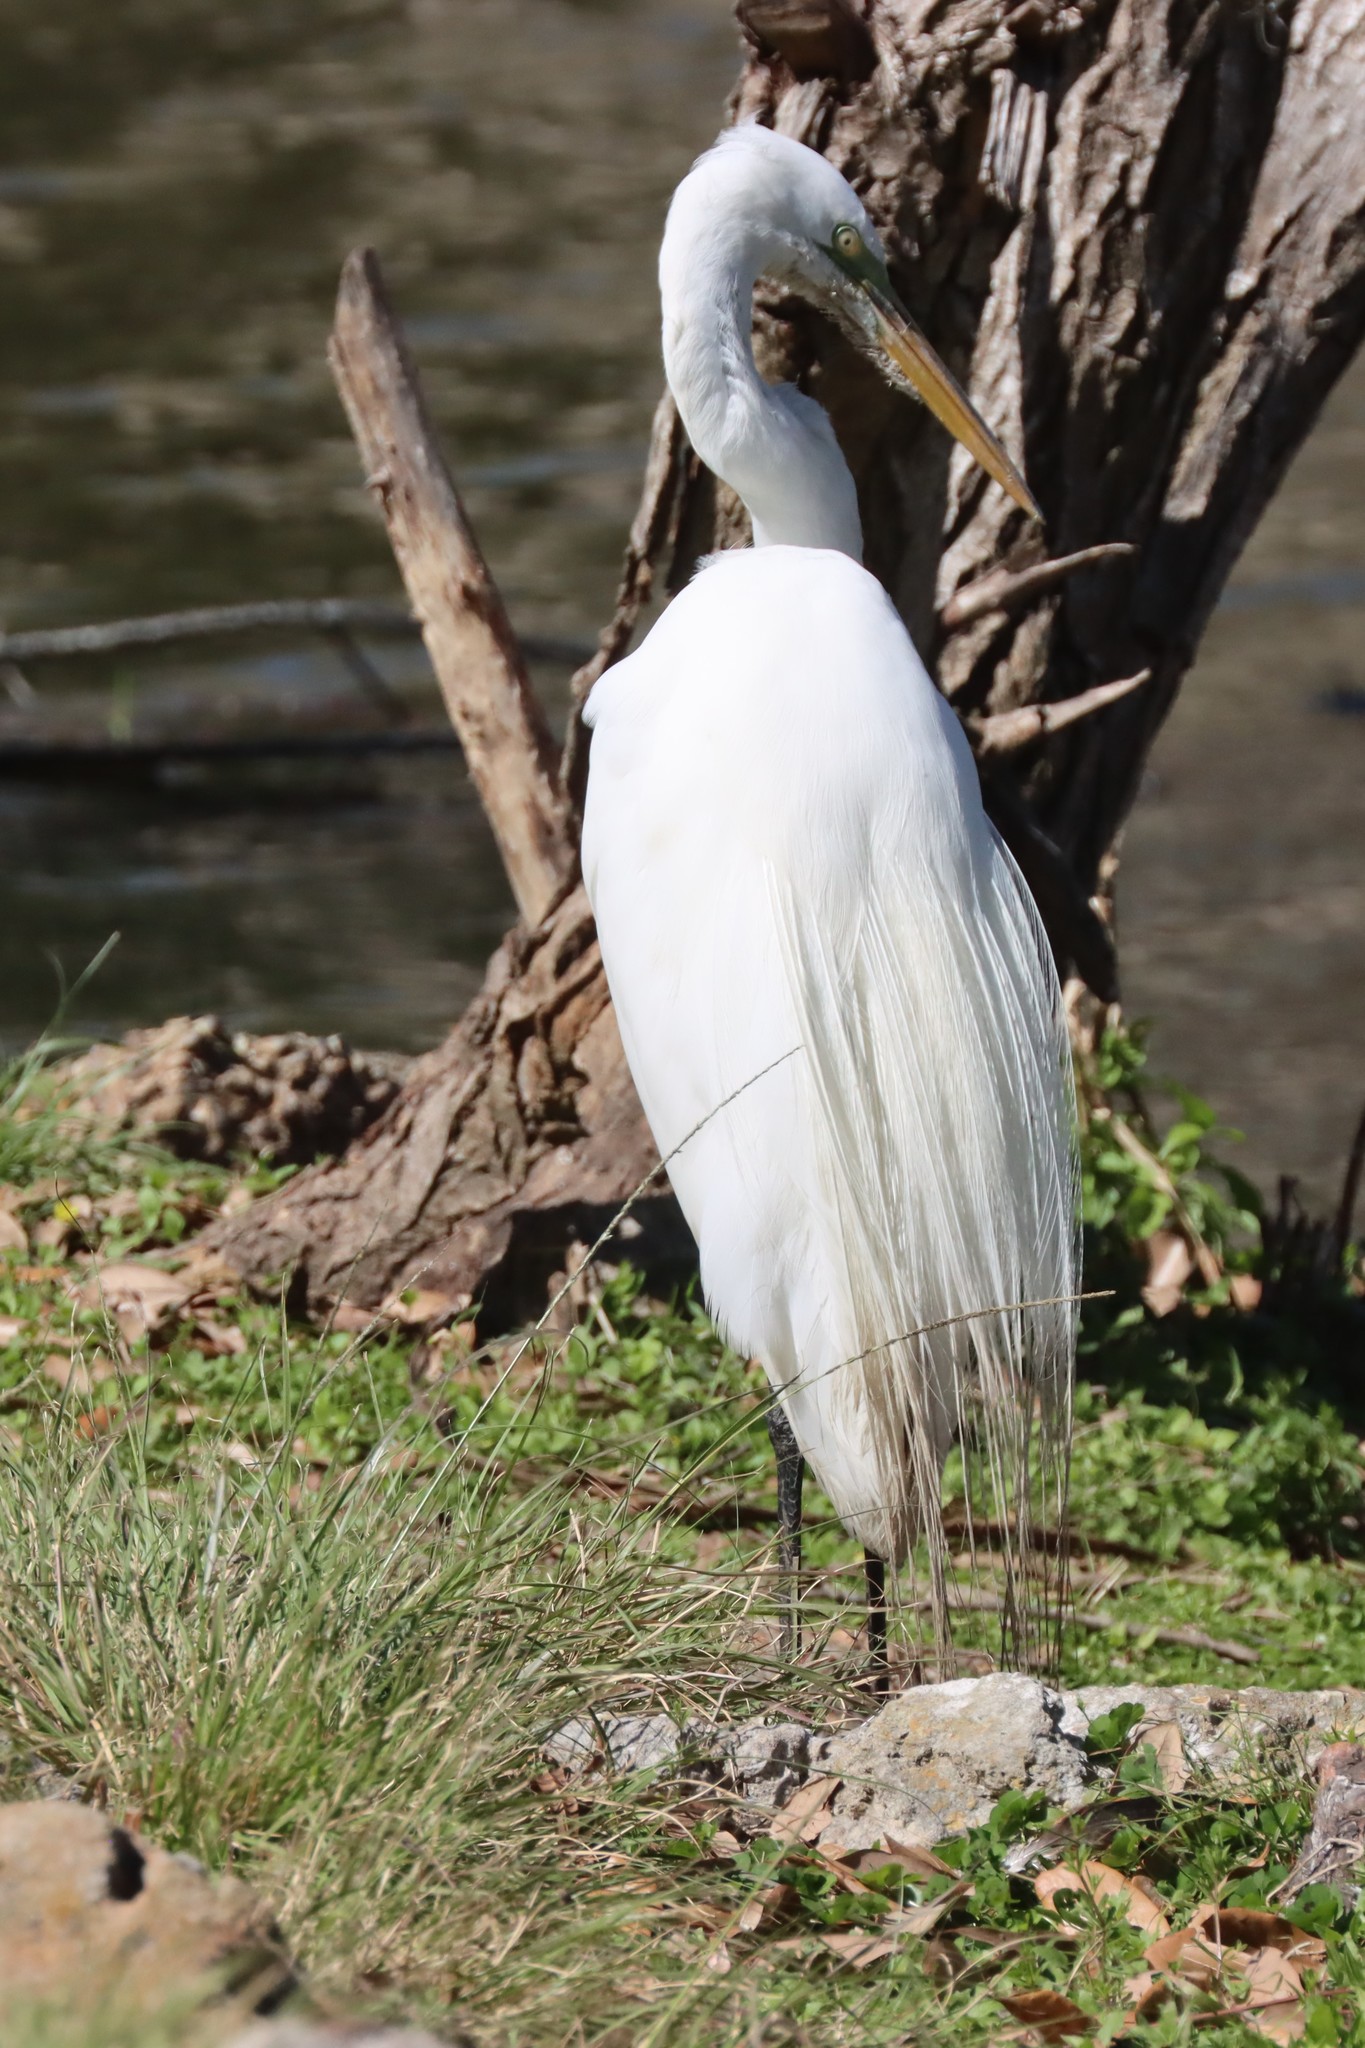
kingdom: Animalia
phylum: Chordata
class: Aves
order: Pelecaniformes
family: Ardeidae
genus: Ardea
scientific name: Ardea alba
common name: Great egret
